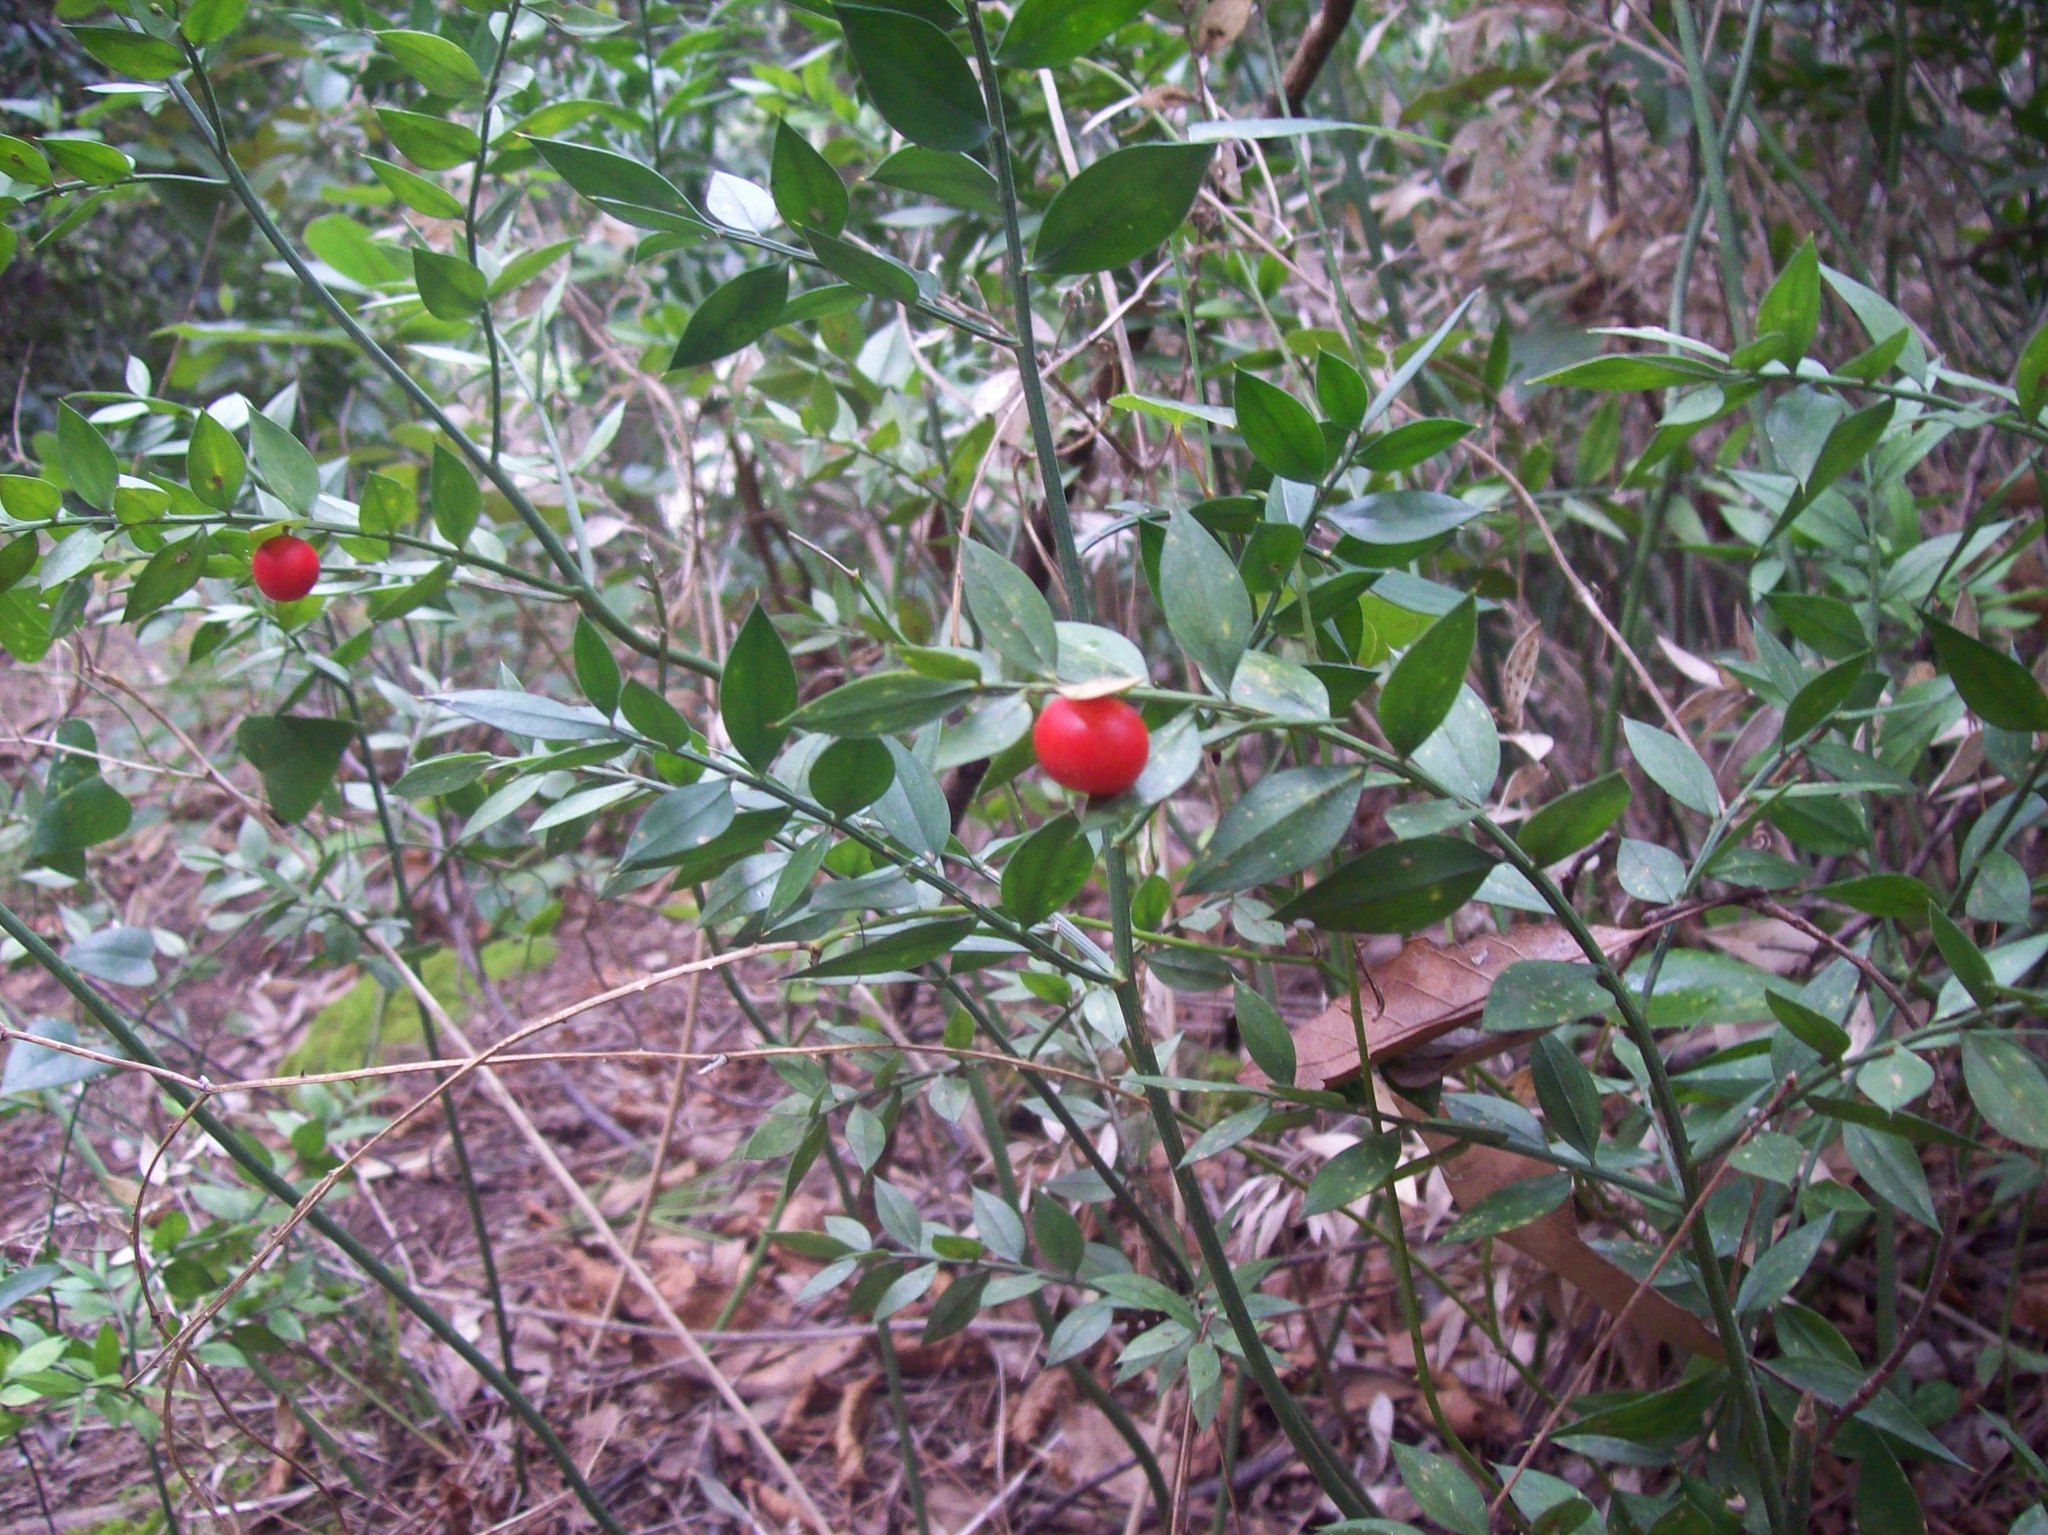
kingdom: Plantae
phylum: Tracheophyta
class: Liliopsida
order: Asparagales
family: Asparagaceae
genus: Ruscus
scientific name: Ruscus aculeatus
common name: Butcher's-broom
